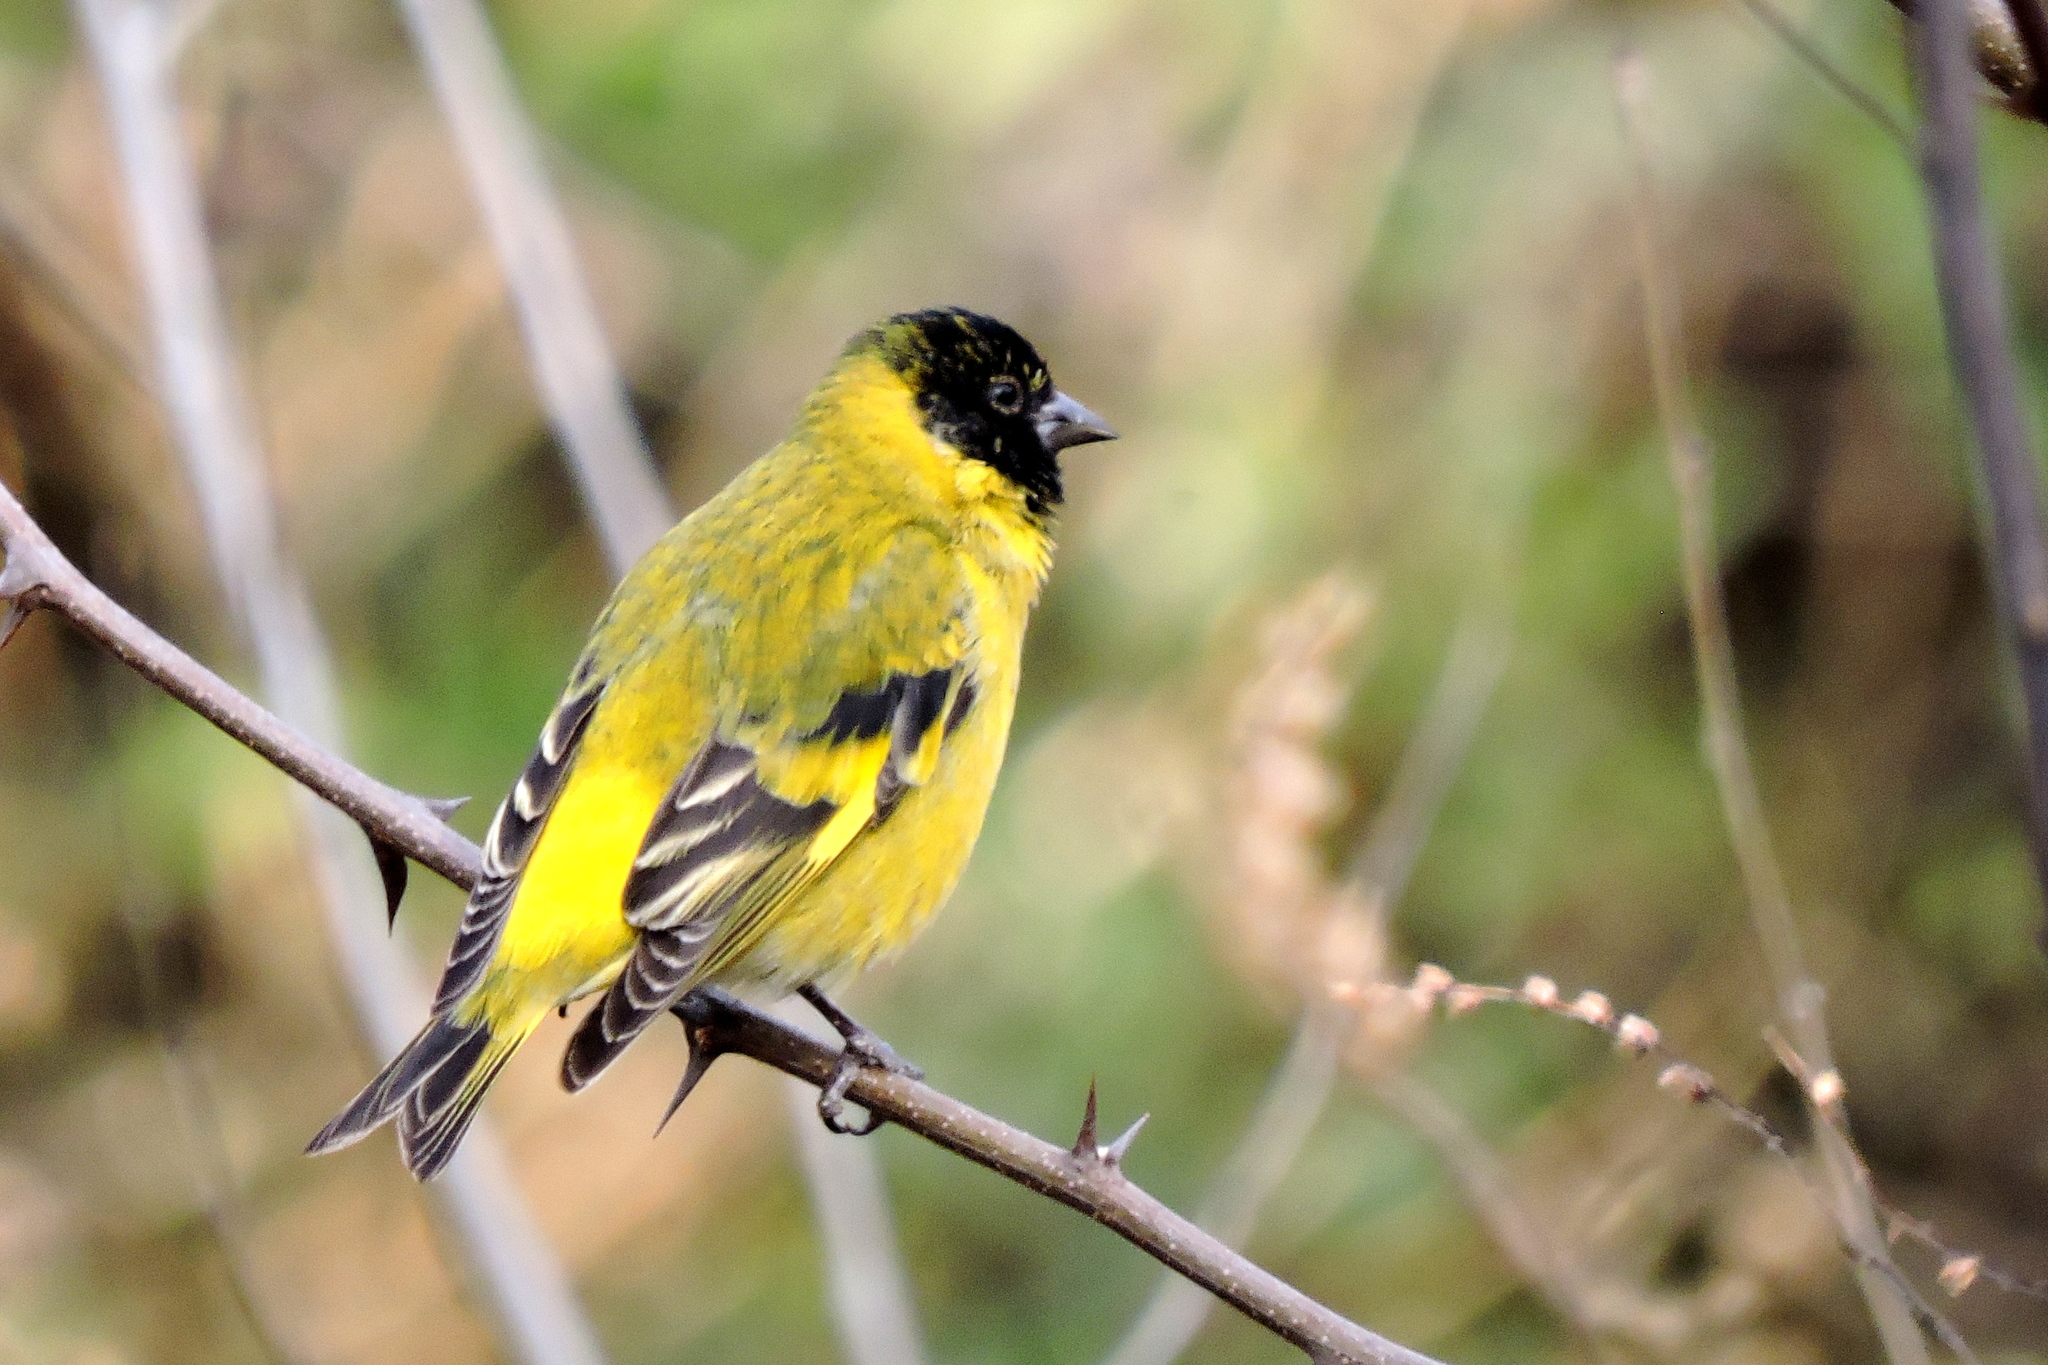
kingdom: Animalia
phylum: Chordata
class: Aves
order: Passeriformes
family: Fringillidae
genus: Spinus
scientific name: Spinus magellanicus
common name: Hooded siskin
